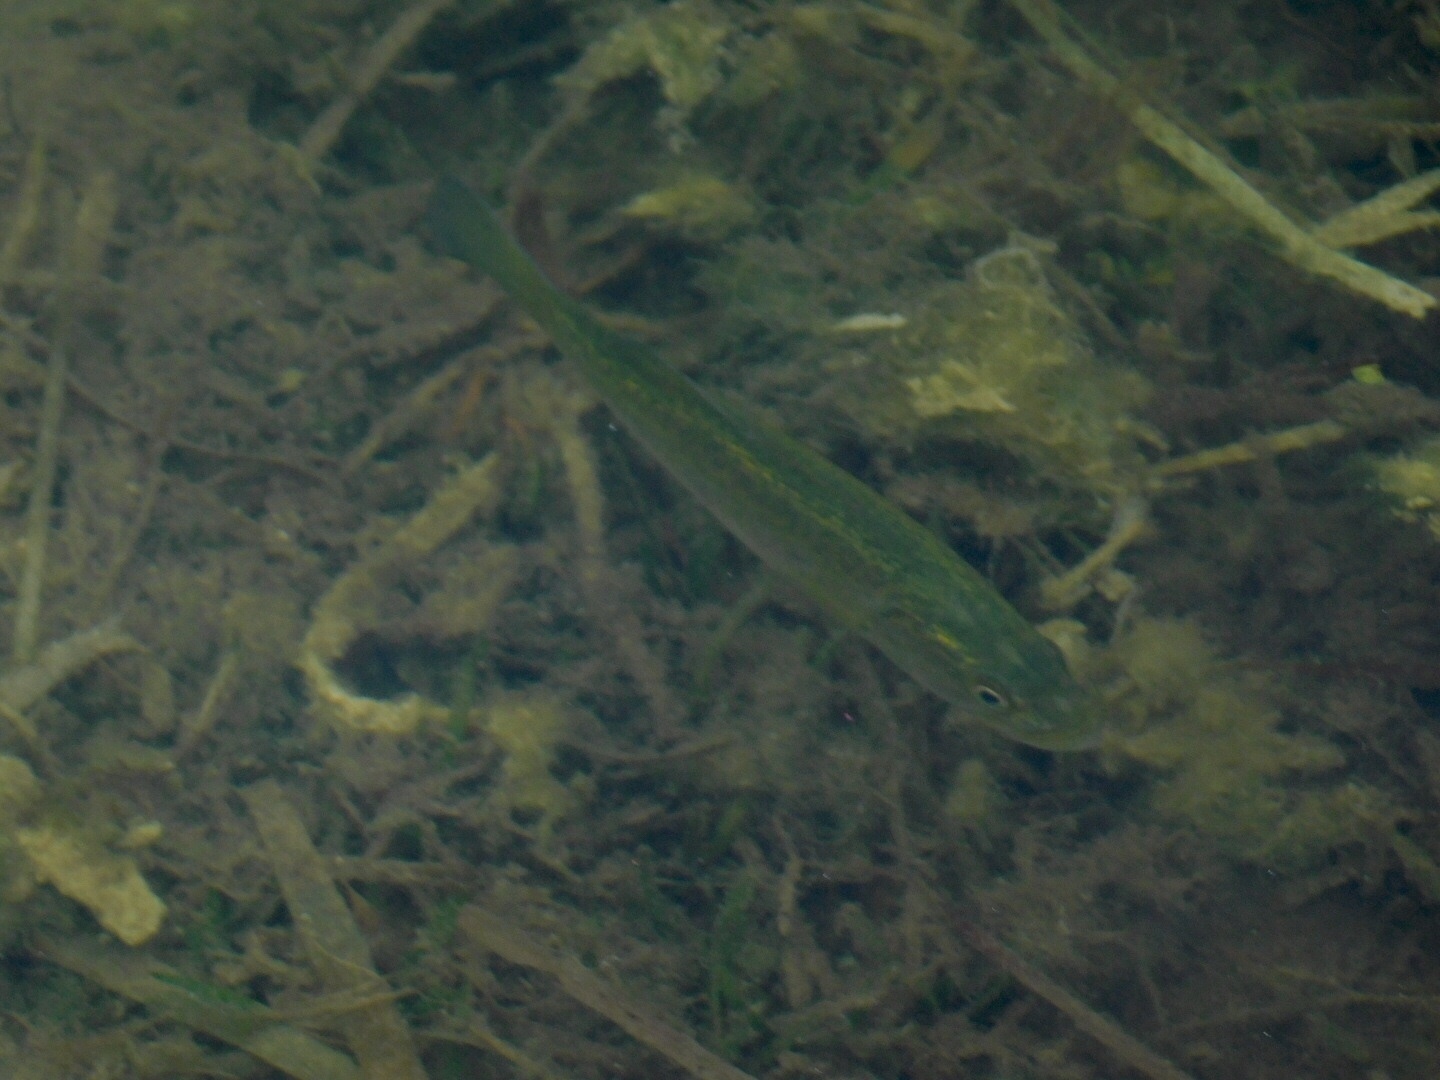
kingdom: Animalia
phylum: Chordata
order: Perciformes
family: Centrarchidae
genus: Micropterus
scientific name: Micropterus salmoides
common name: Largemouth bass
